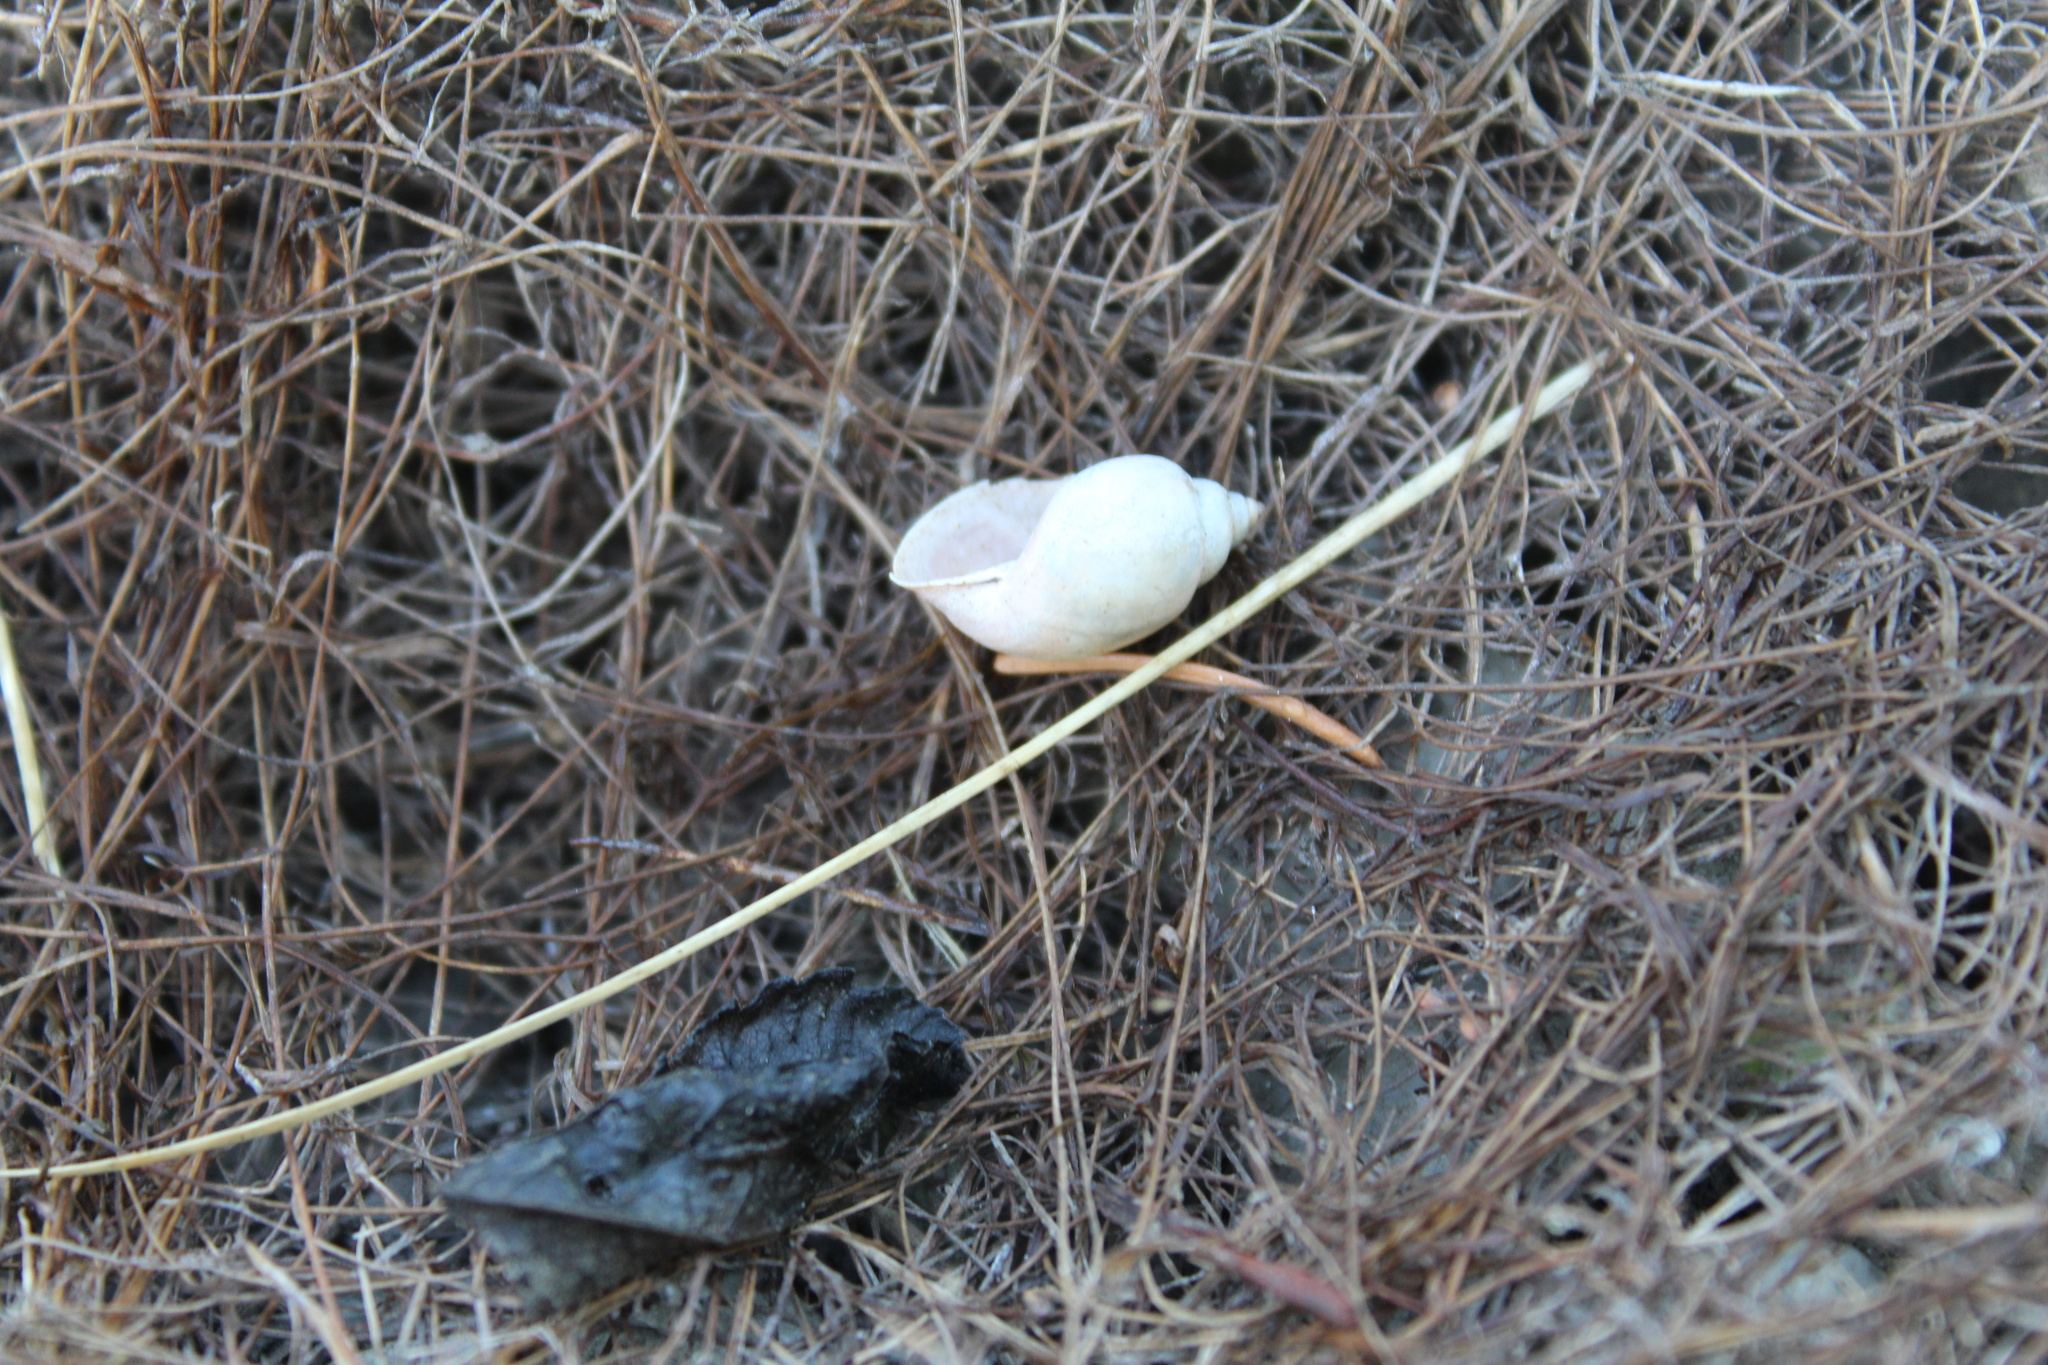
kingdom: Animalia
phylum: Mollusca
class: Gastropoda
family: Physidae
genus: Physella
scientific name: Physella acuta
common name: European physa
